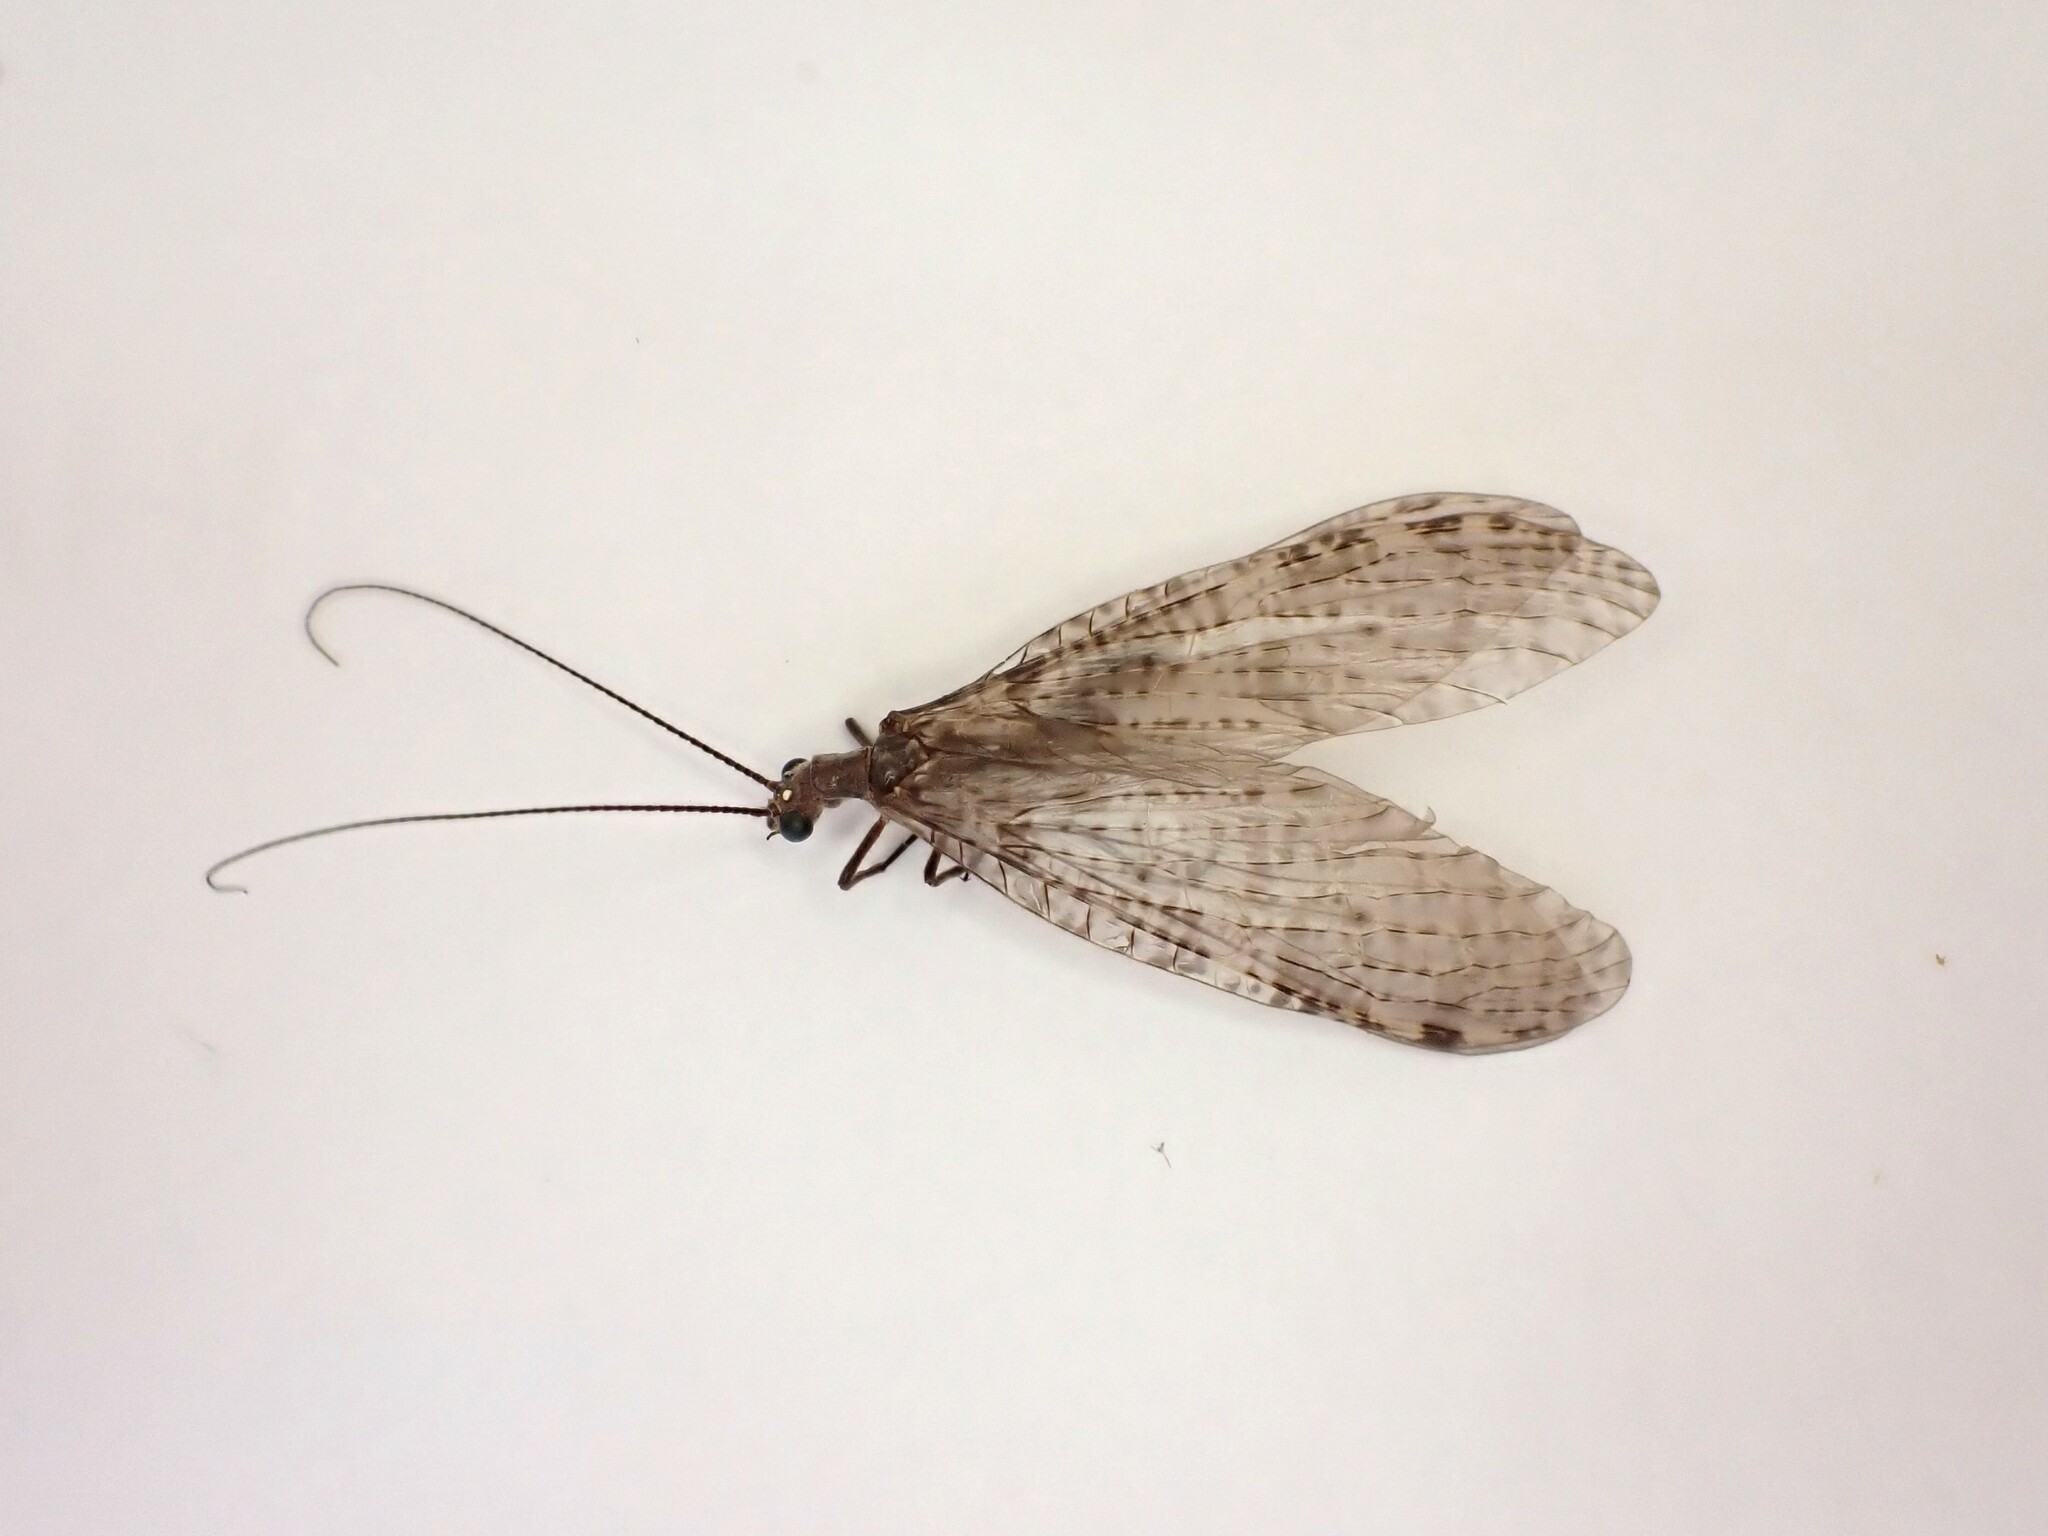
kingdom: Animalia
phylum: Arthropoda
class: Insecta
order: Megaloptera
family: Corydalidae
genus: Archichauliodes
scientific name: Archichauliodes diversus
